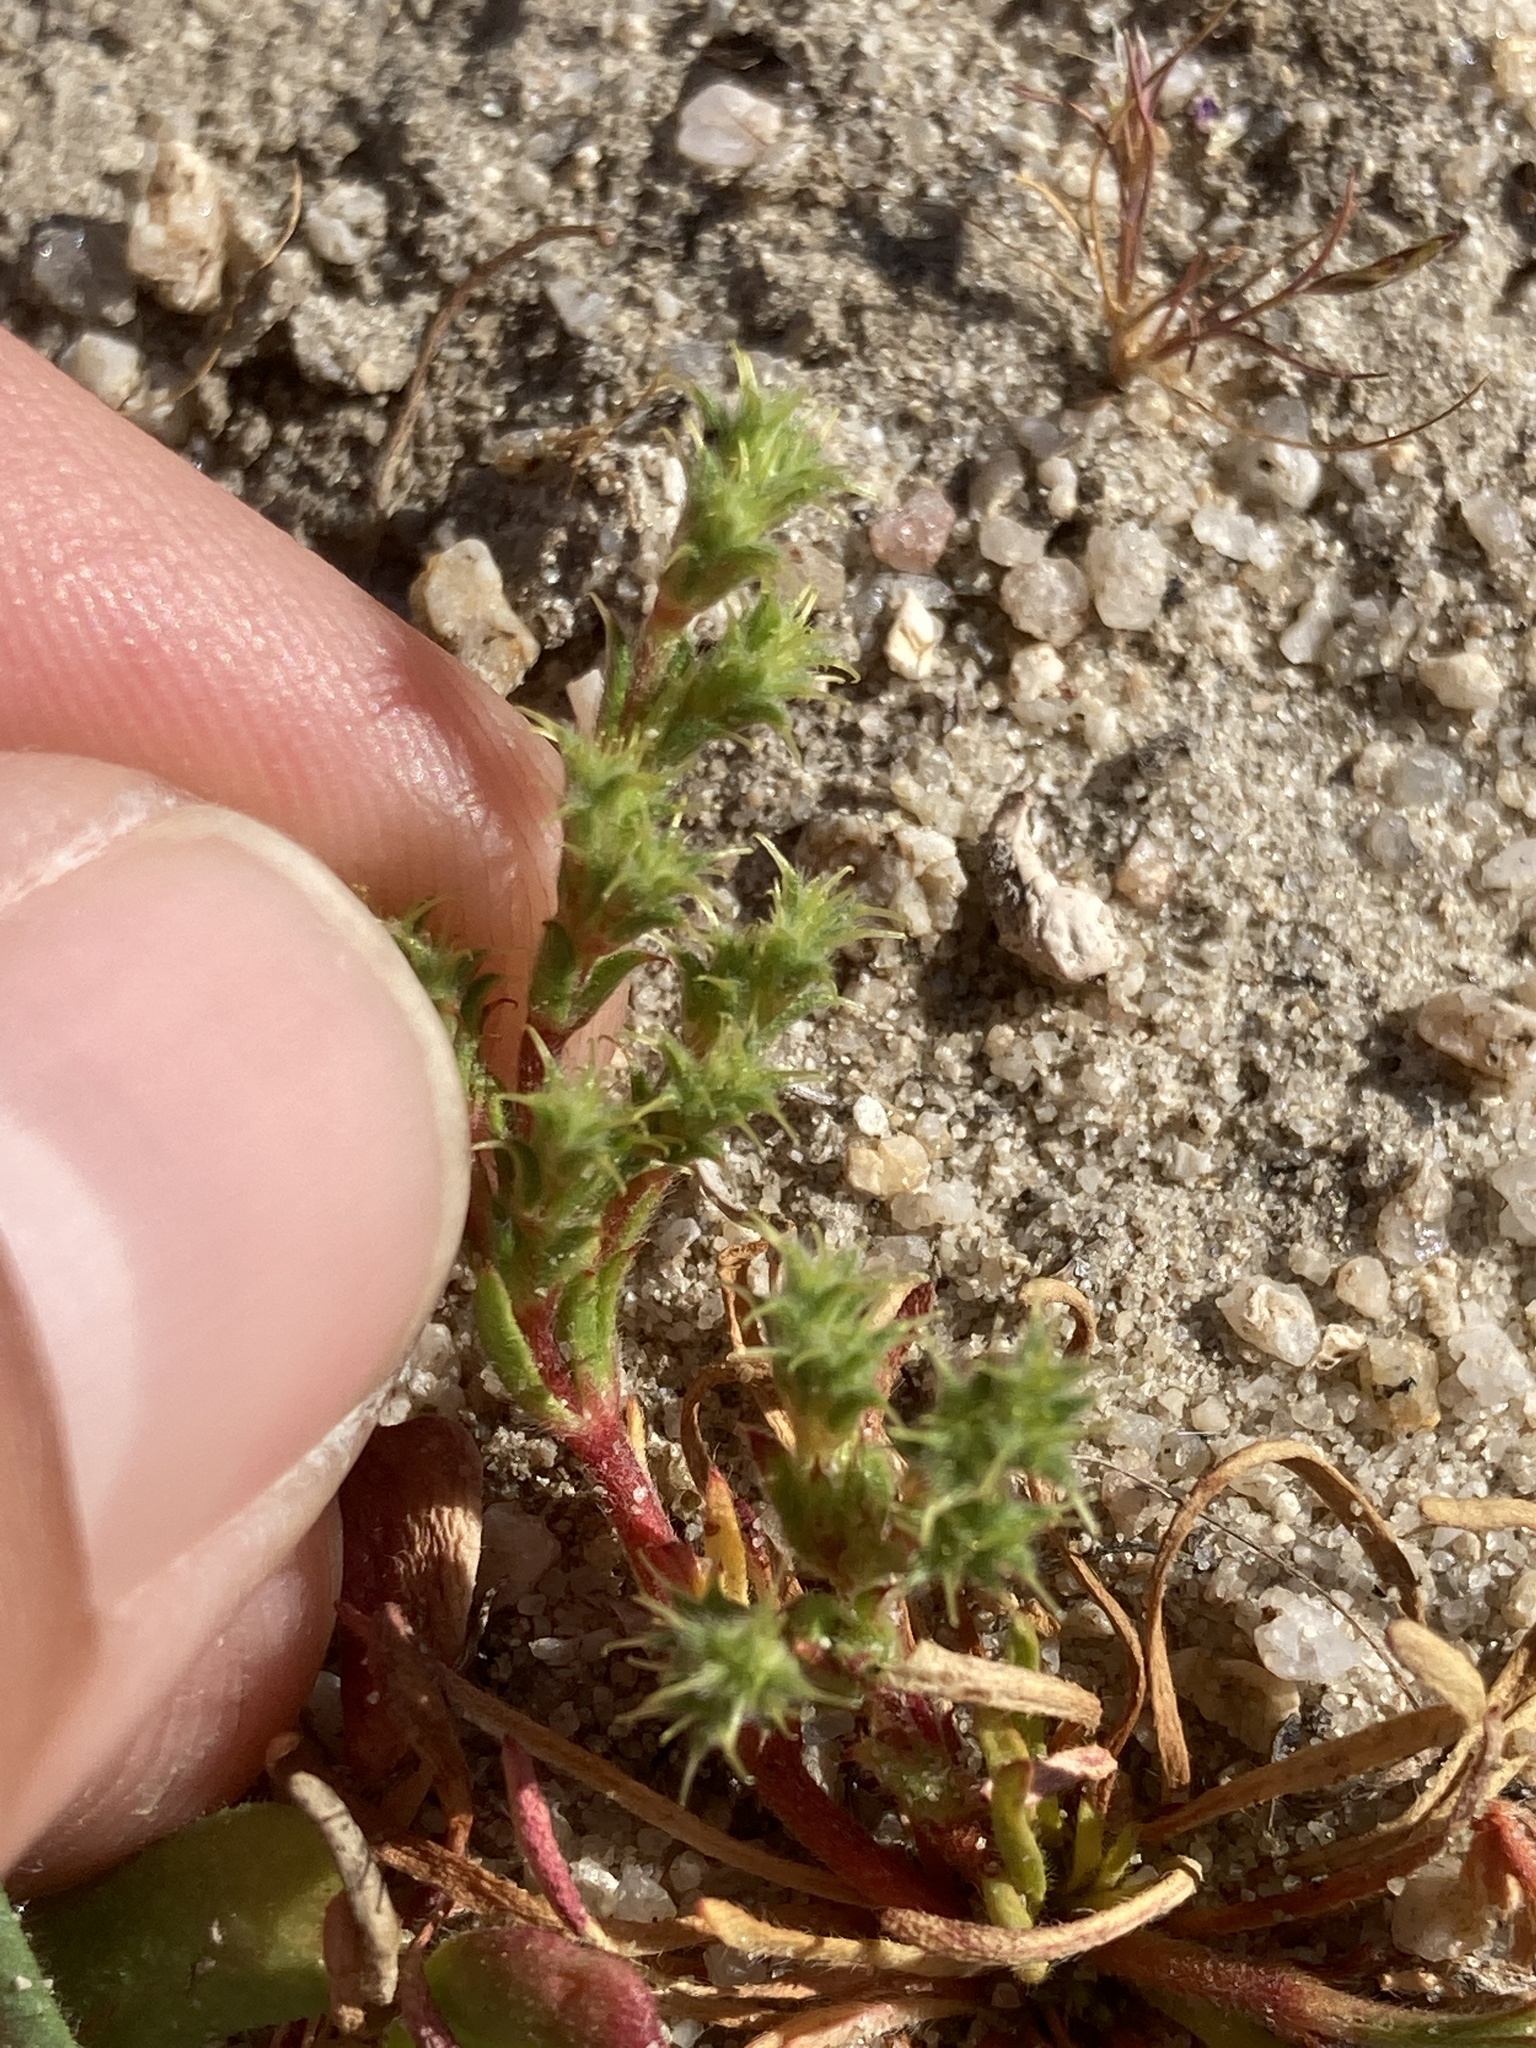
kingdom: Plantae
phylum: Tracheophyta
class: Magnoliopsida
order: Caryophyllales
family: Polygonaceae
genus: Lastarriaea
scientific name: Lastarriaea coriacea
